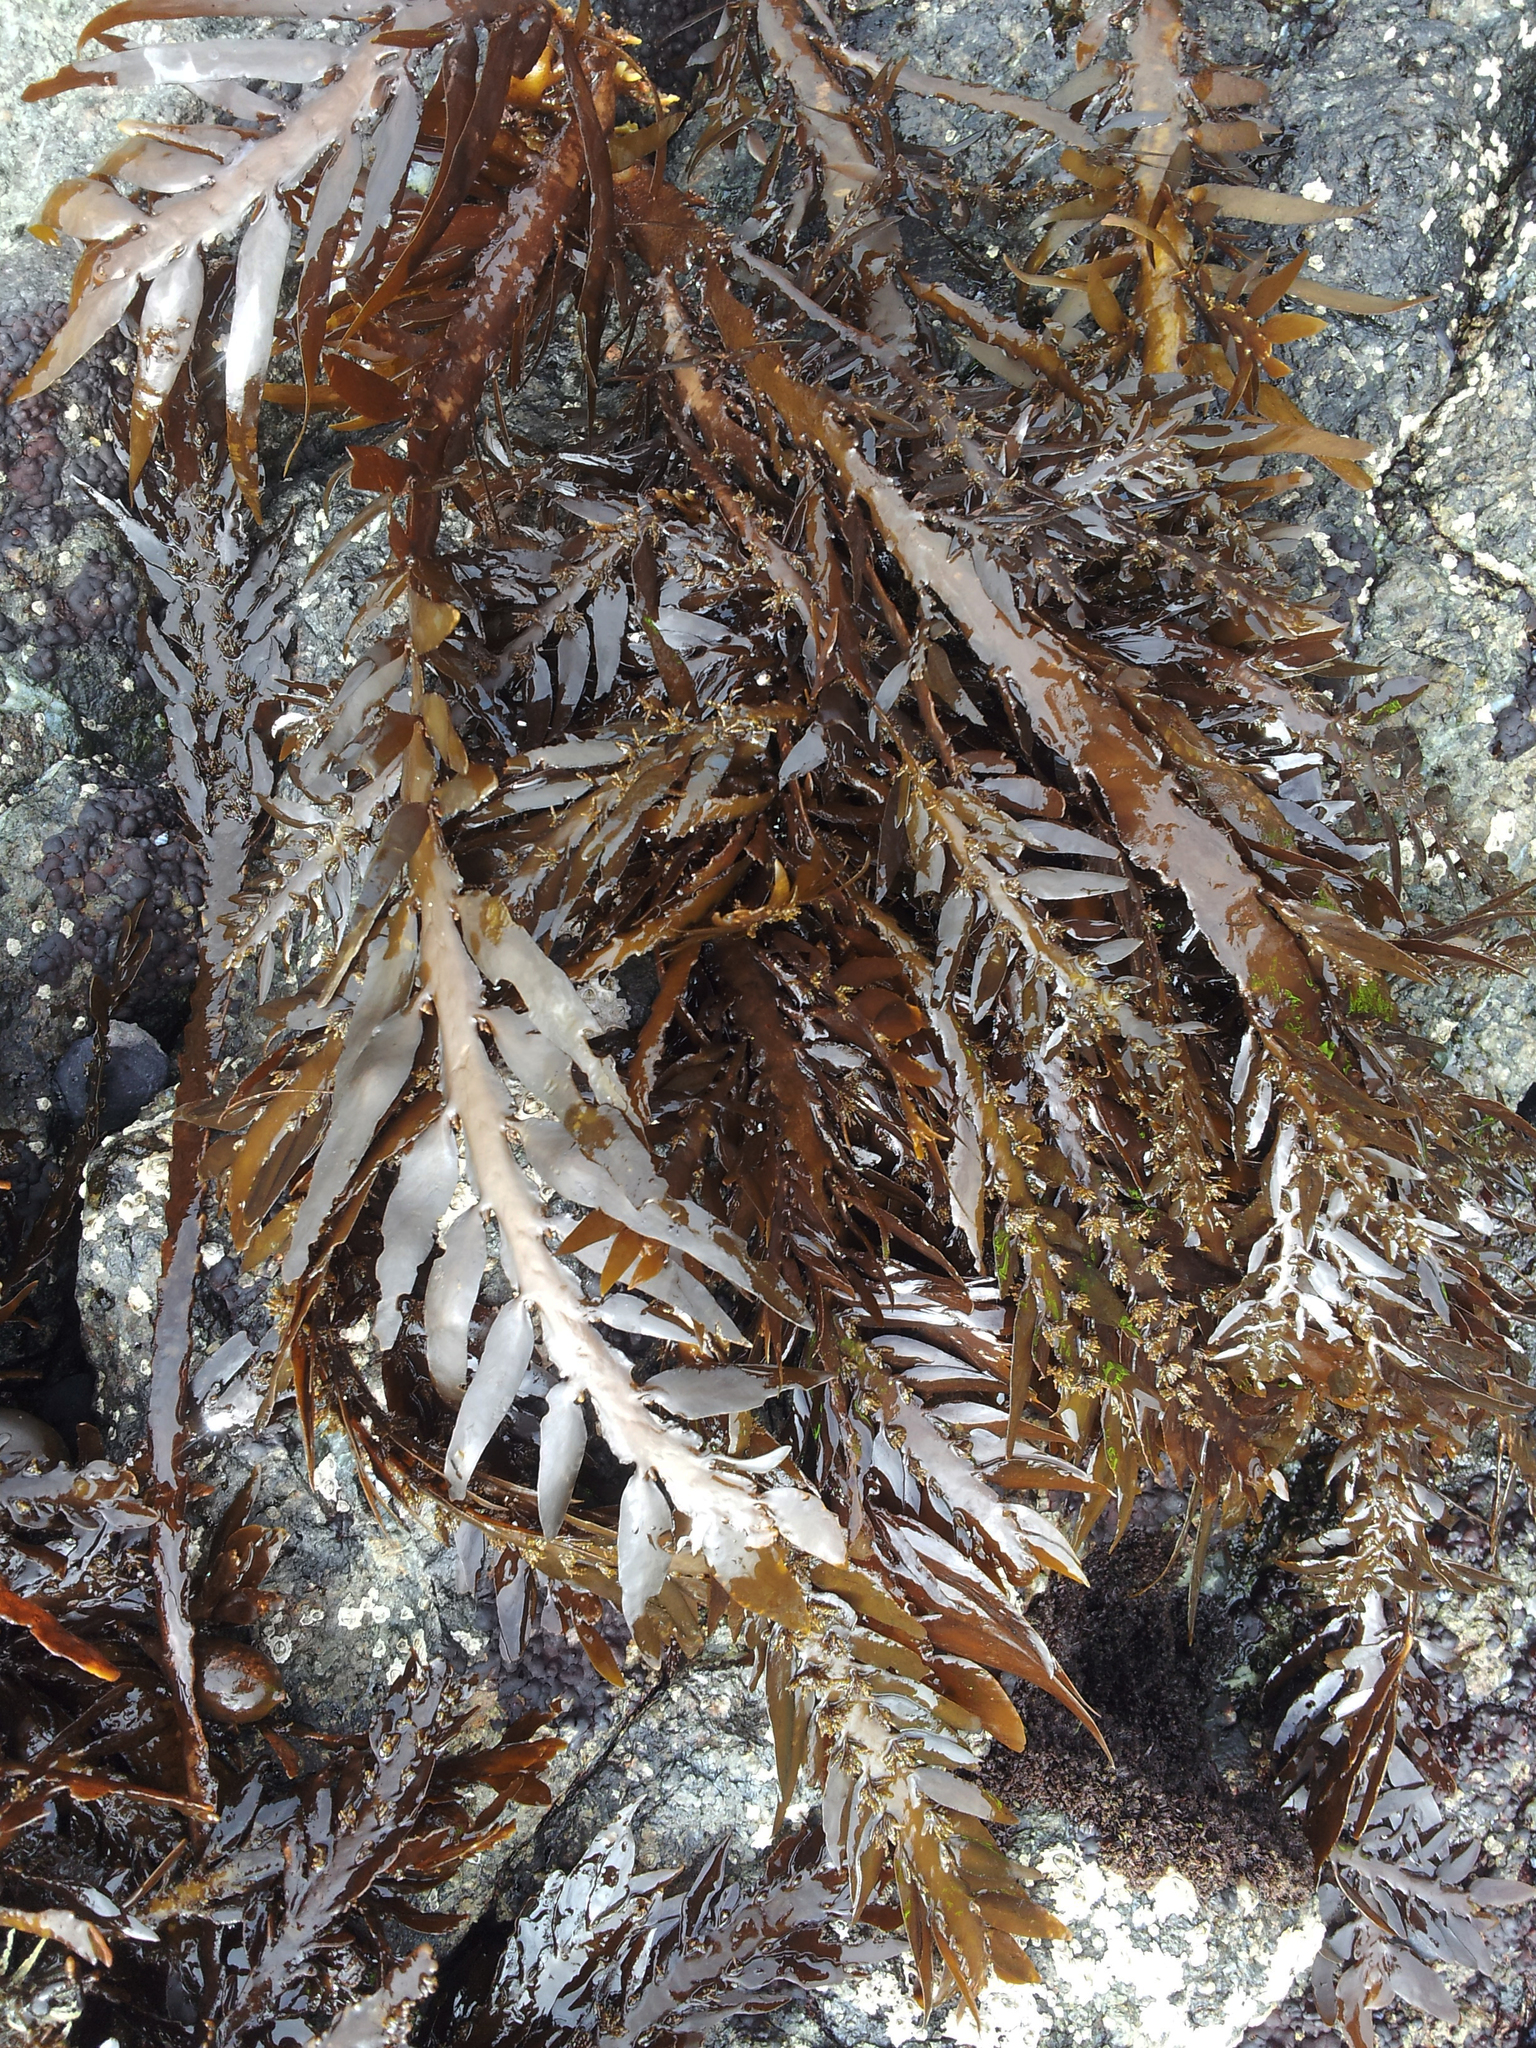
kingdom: Chromista
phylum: Ochrophyta
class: Phaeophyceae
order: Fucales
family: Sargassaceae
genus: Carpophyllum
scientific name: Carpophyllum maschalocarpum
